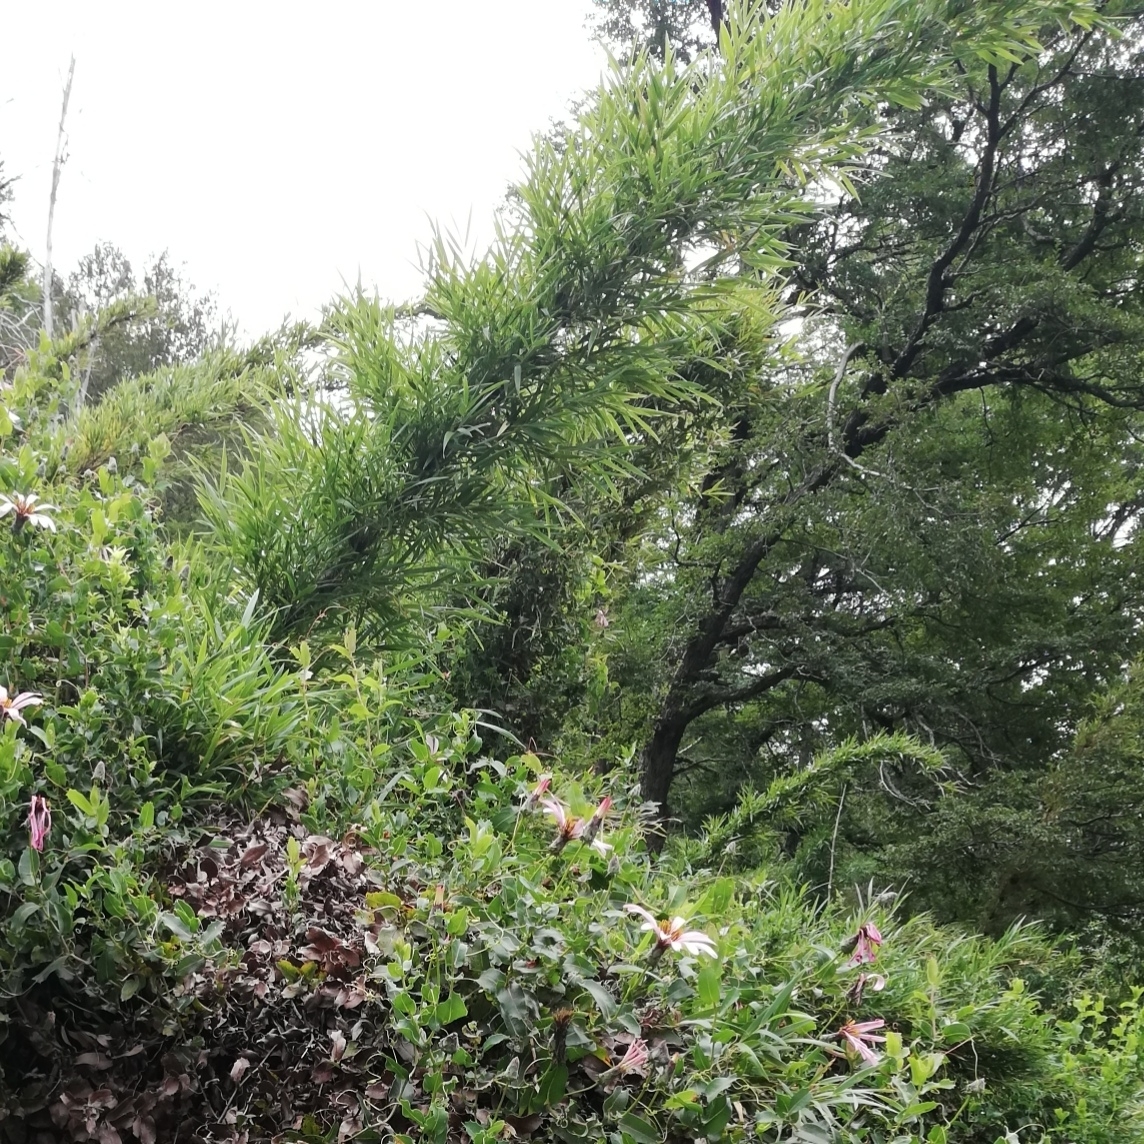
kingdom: Plantae
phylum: Tracheophyta
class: Liliopsida
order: Poales
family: Poaceae
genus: Chusquea
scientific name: Chusquea culeou
